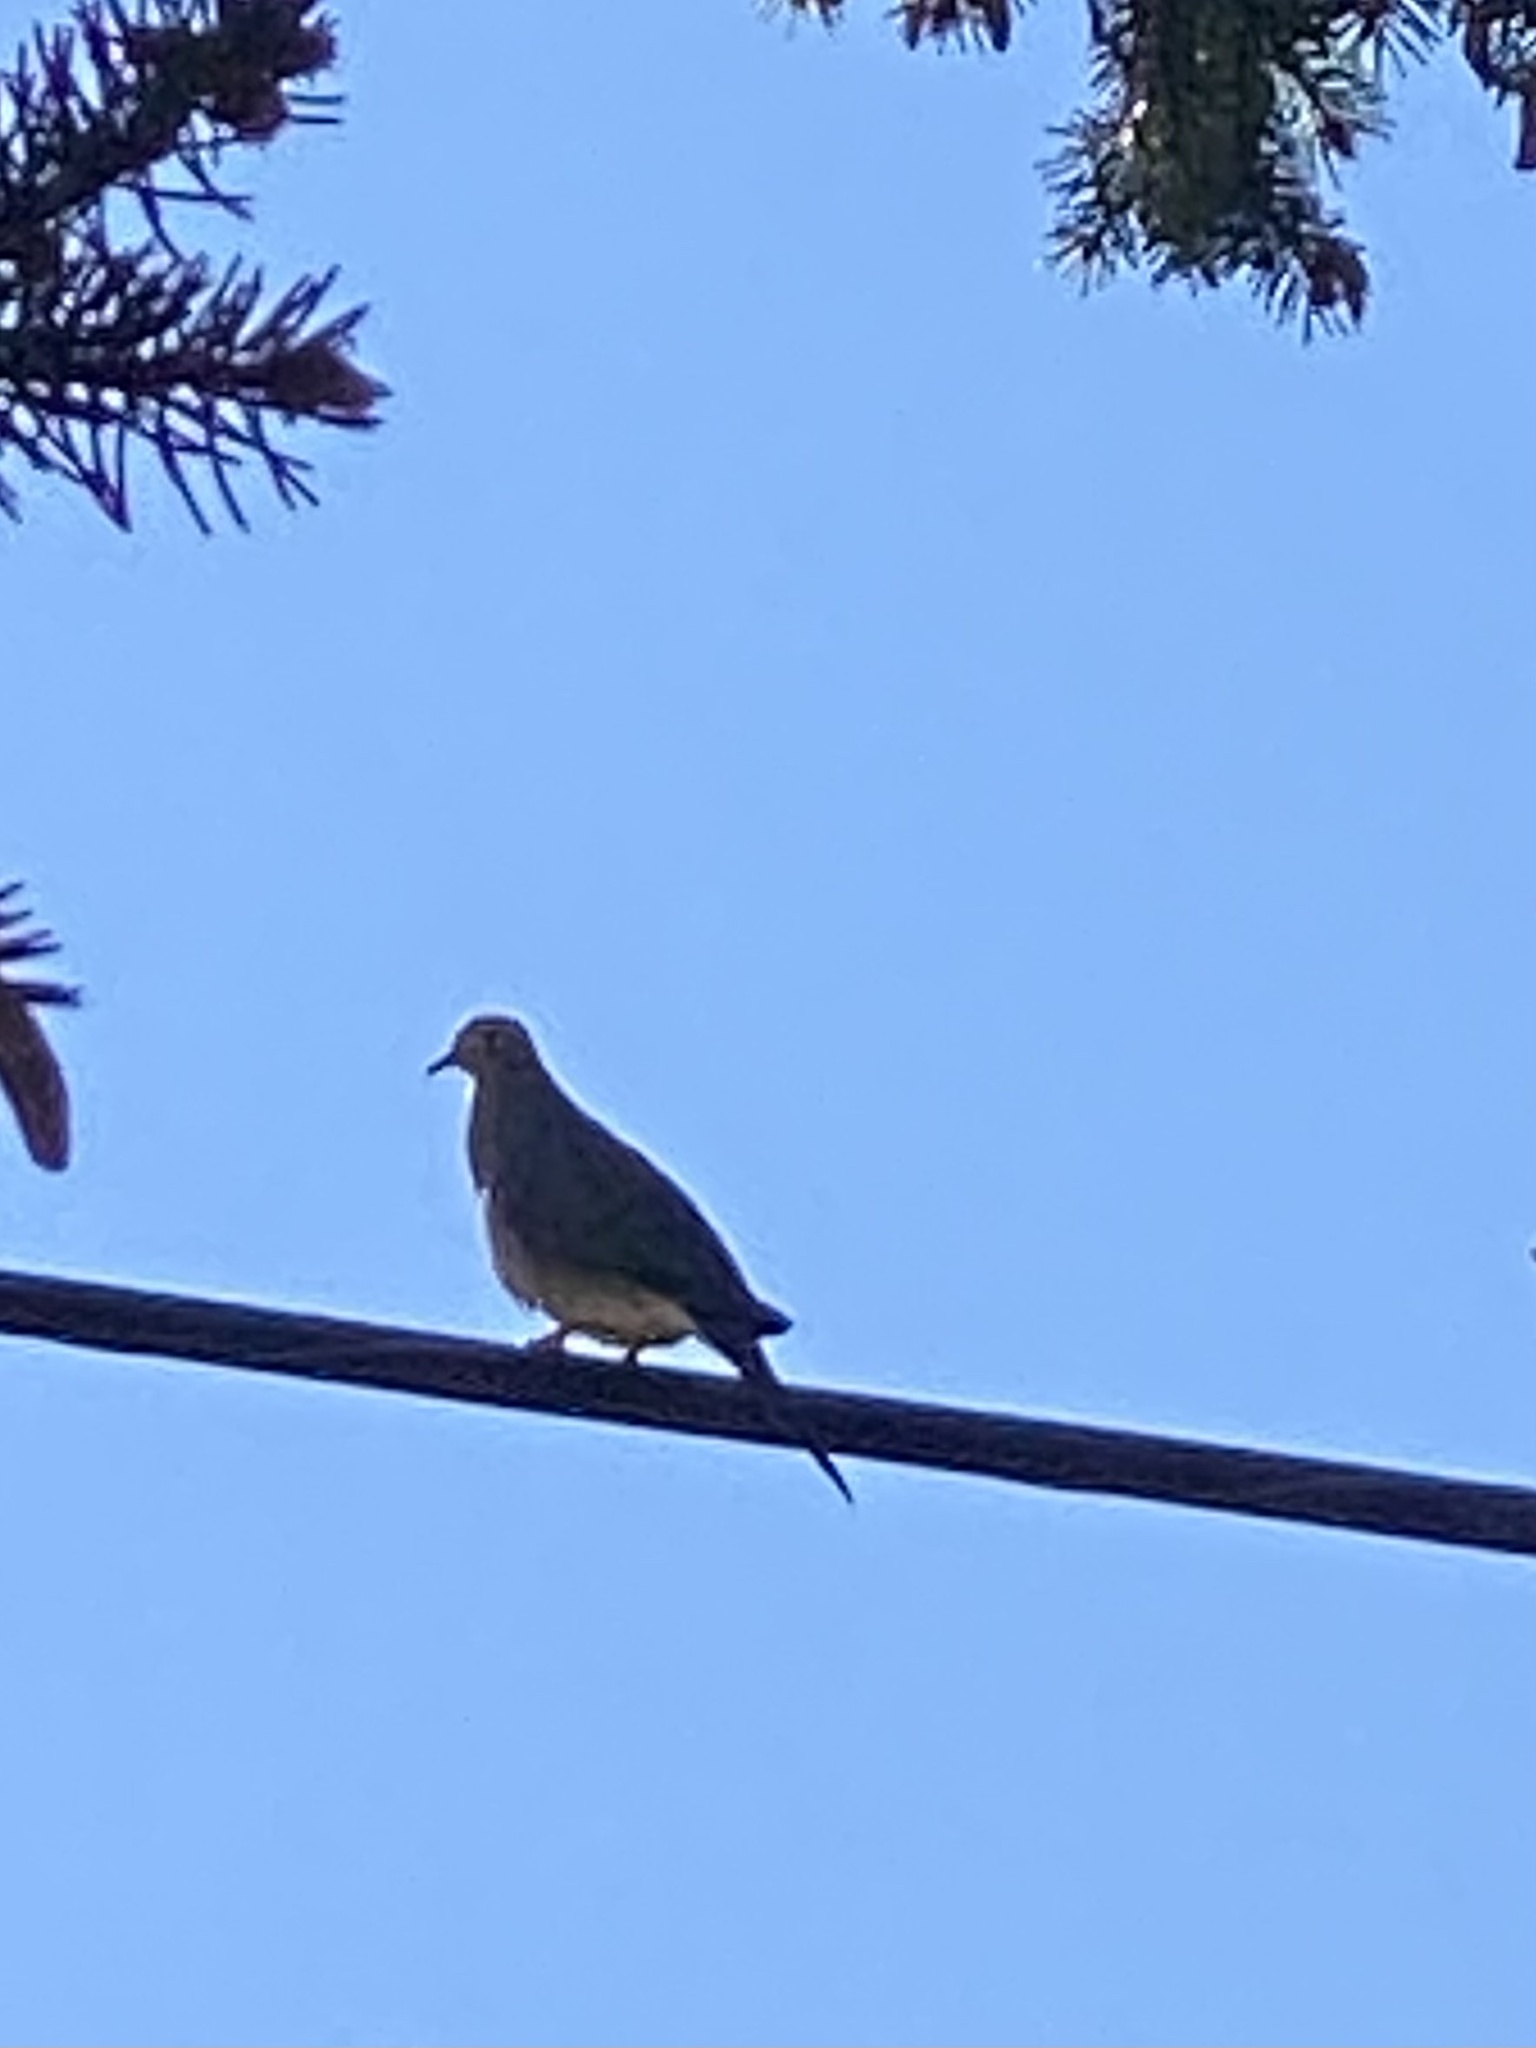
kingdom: Animalia
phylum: Chordata
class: Aves
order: Columbiformes
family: Columbidae
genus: Zenaida
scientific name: Zenaida macroura
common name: Mourning dove
